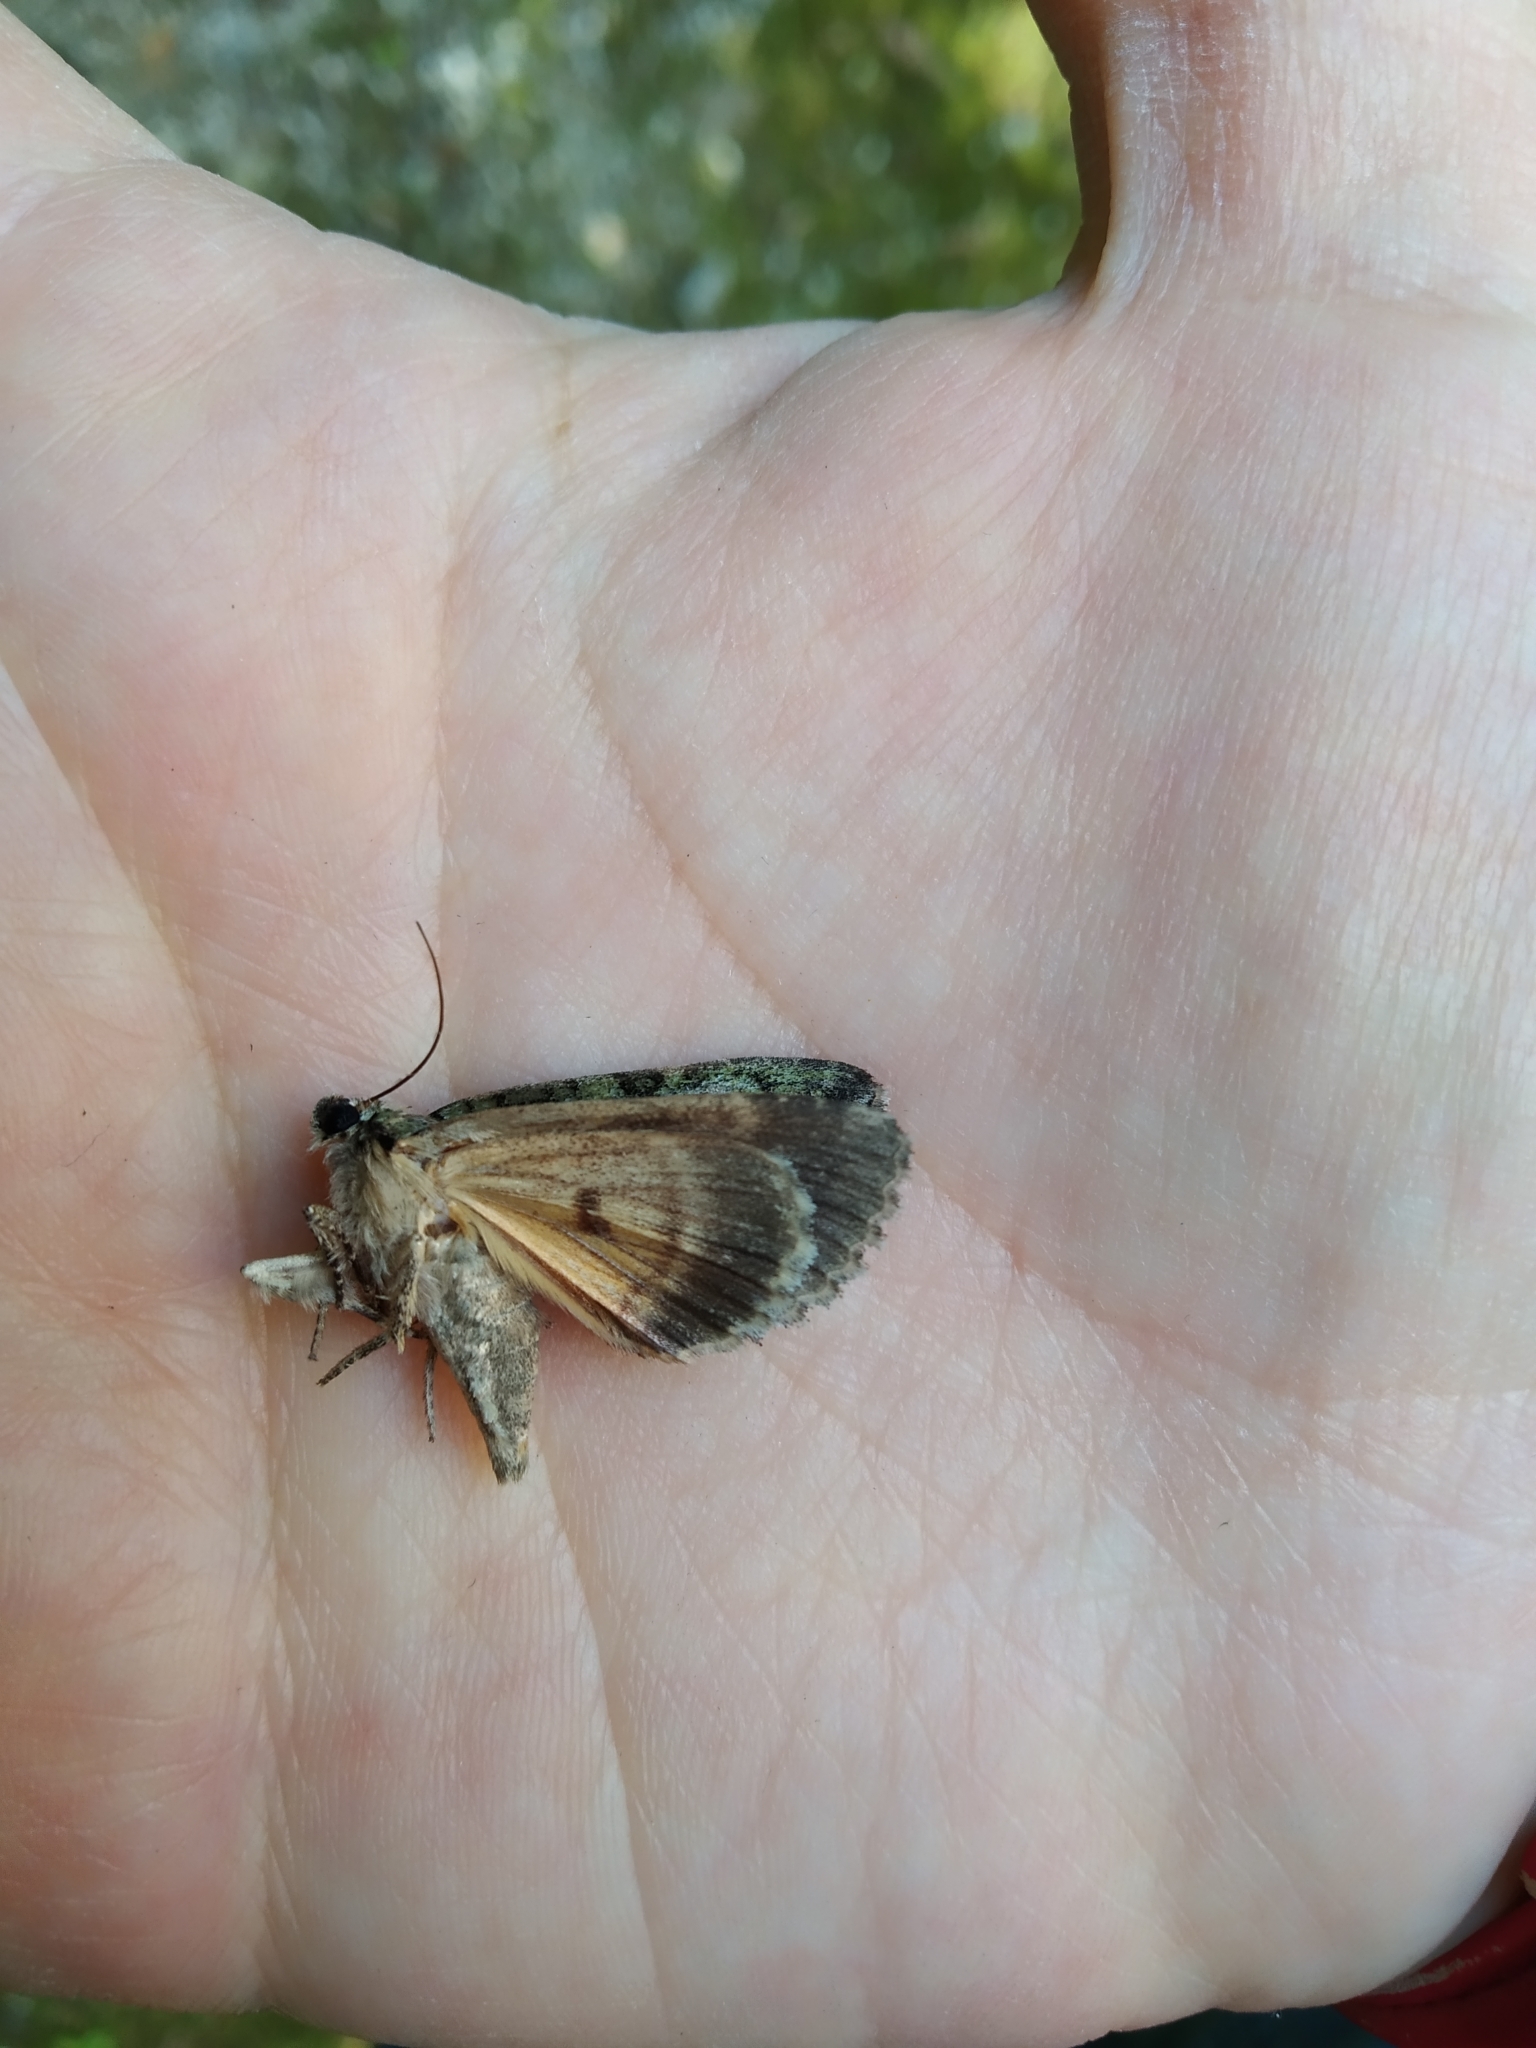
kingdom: Animalia
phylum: Arthropoda
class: Insecta
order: Lepidoptera
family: Noctuidae
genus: Polyphaenis
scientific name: Polyphaenis sericata
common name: Guernsey underwing
